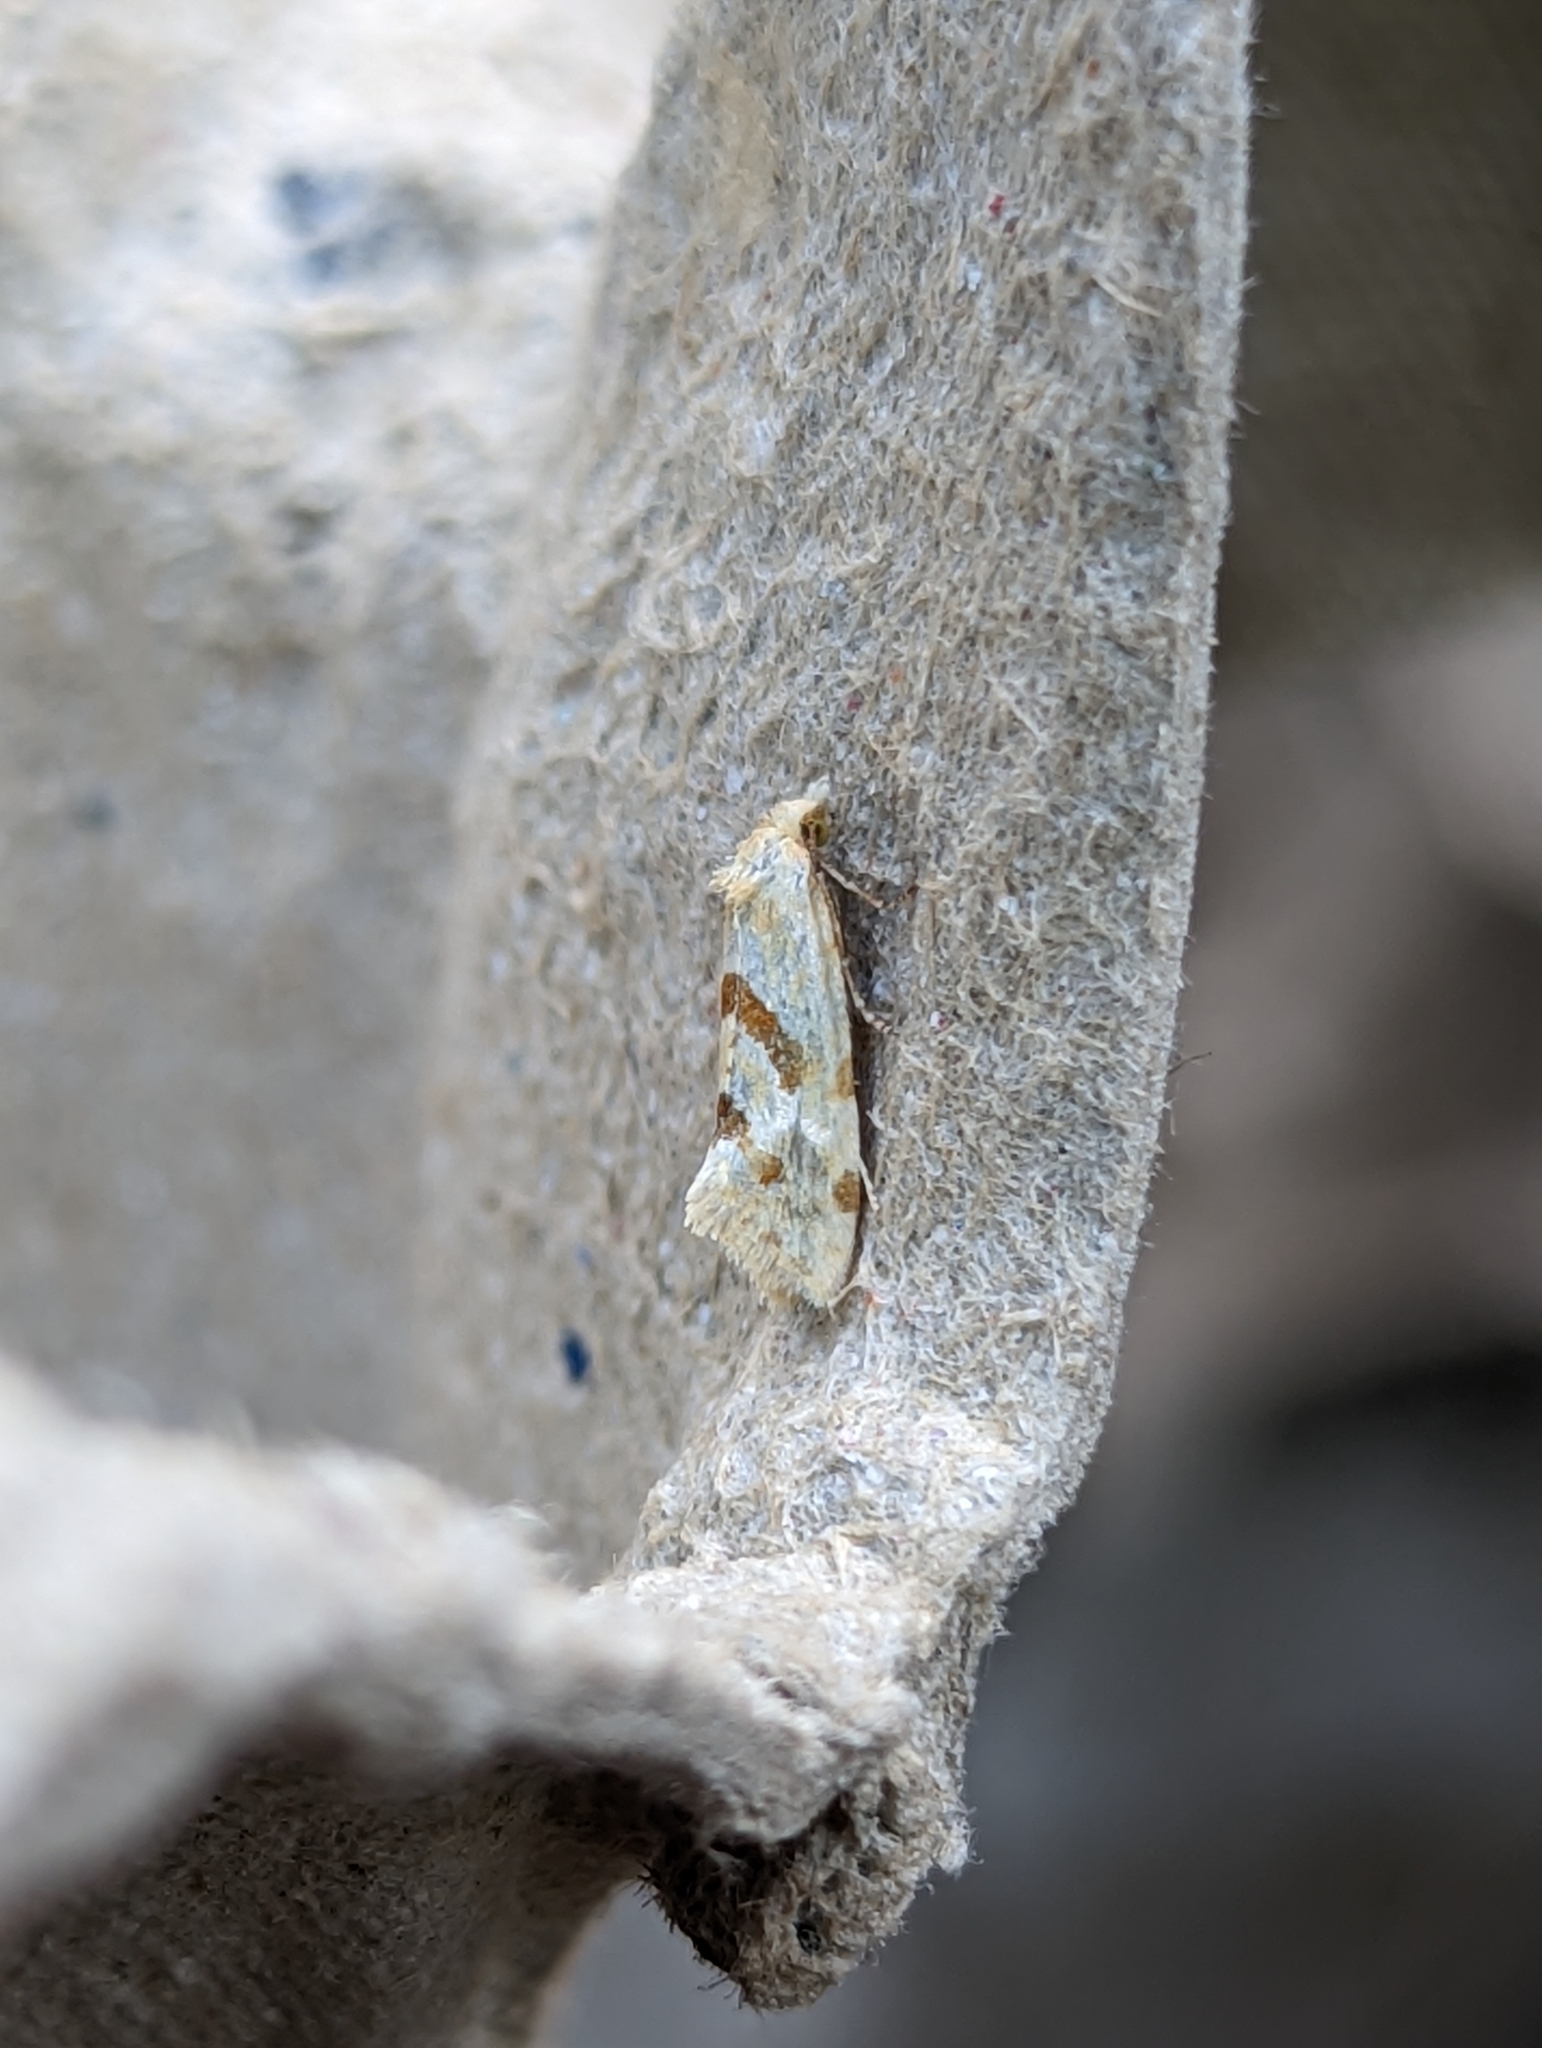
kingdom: Animalia
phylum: Arthropoda
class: Insecta
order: Lepidoptera
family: Tortricidae
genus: Aethes
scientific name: Aethes smeathmanniana
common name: Yarrow conch
